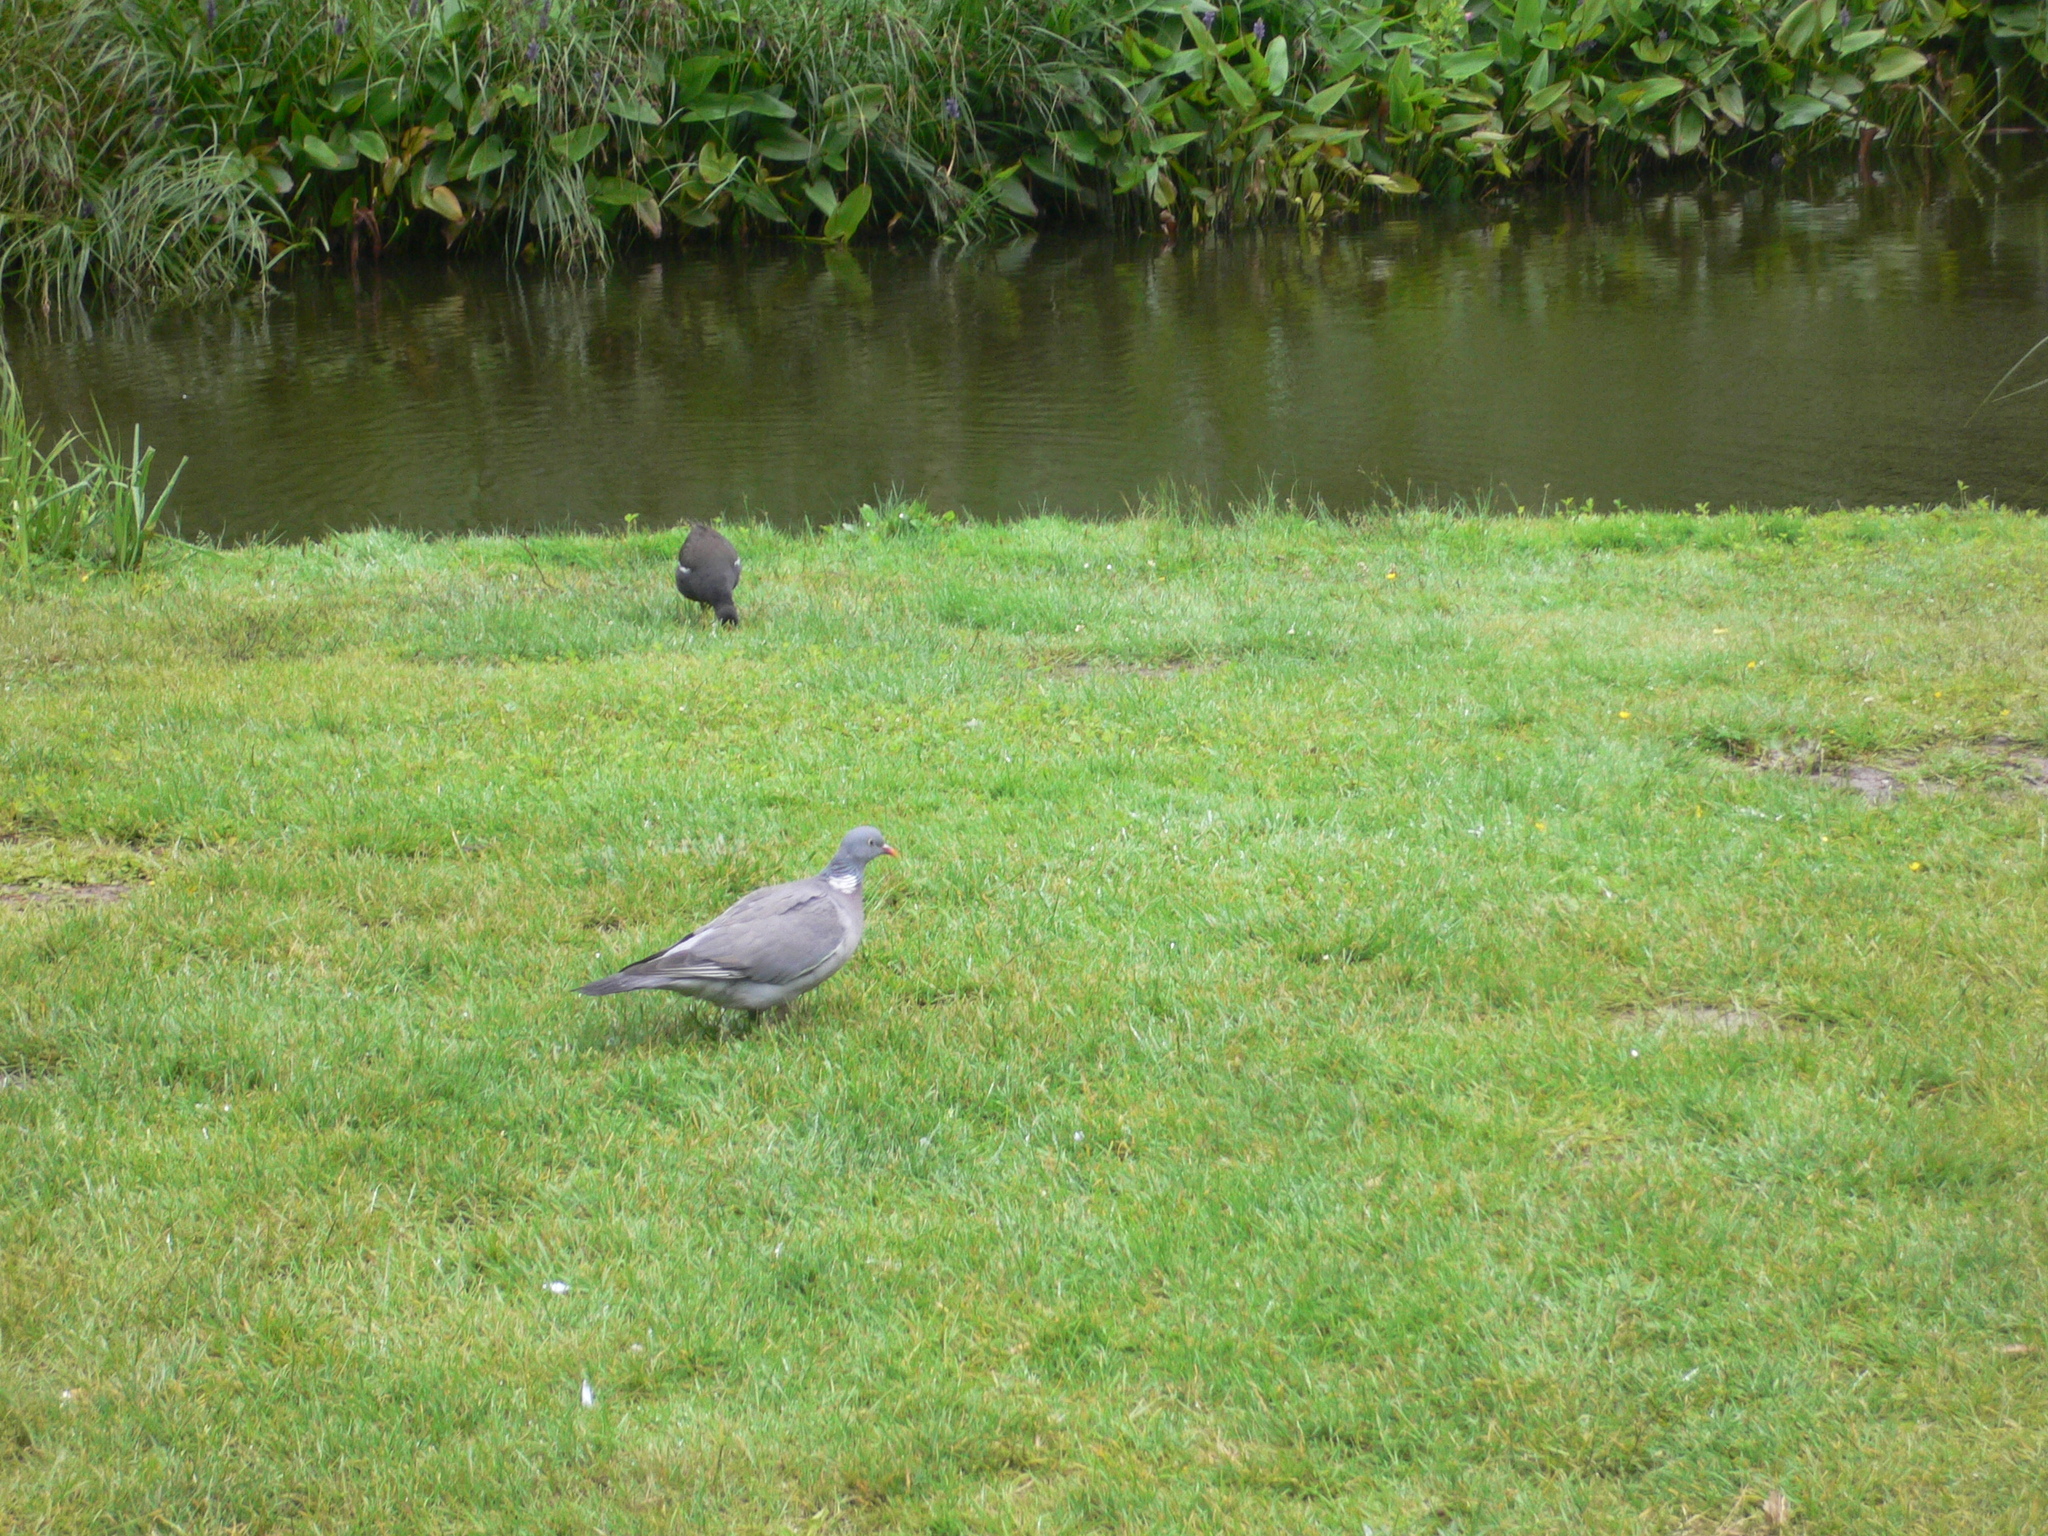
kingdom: Animalia
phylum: Chordata
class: Aves
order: Columbiformes
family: Columbidae
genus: Columba
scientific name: Columba palumbus
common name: Common wood pigeon
